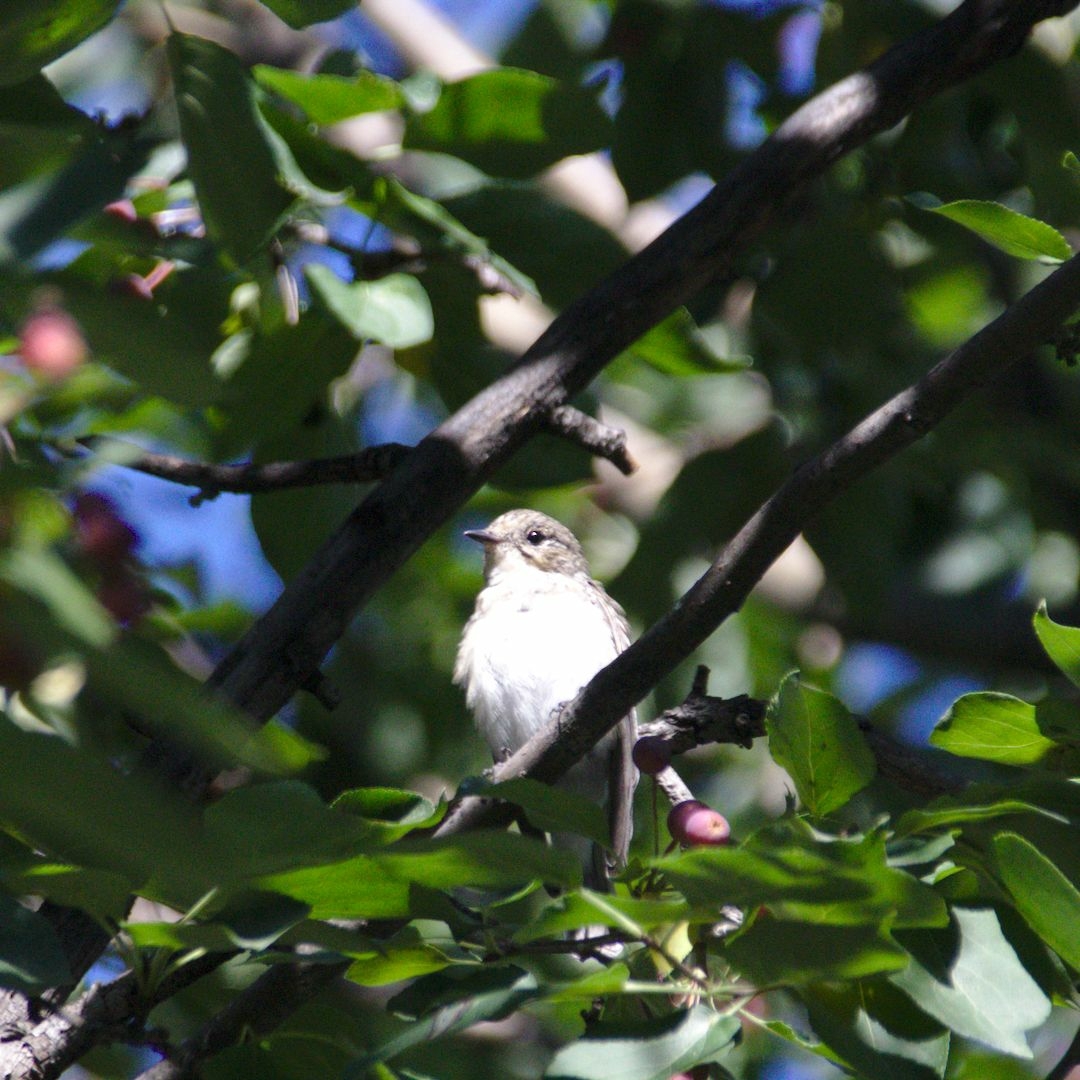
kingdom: Animalia
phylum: Chordata
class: Aves
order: Passeriformes
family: Muscicapidae
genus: Muscicapa
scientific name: Muscicapa striata
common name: Spotted flycatcher
